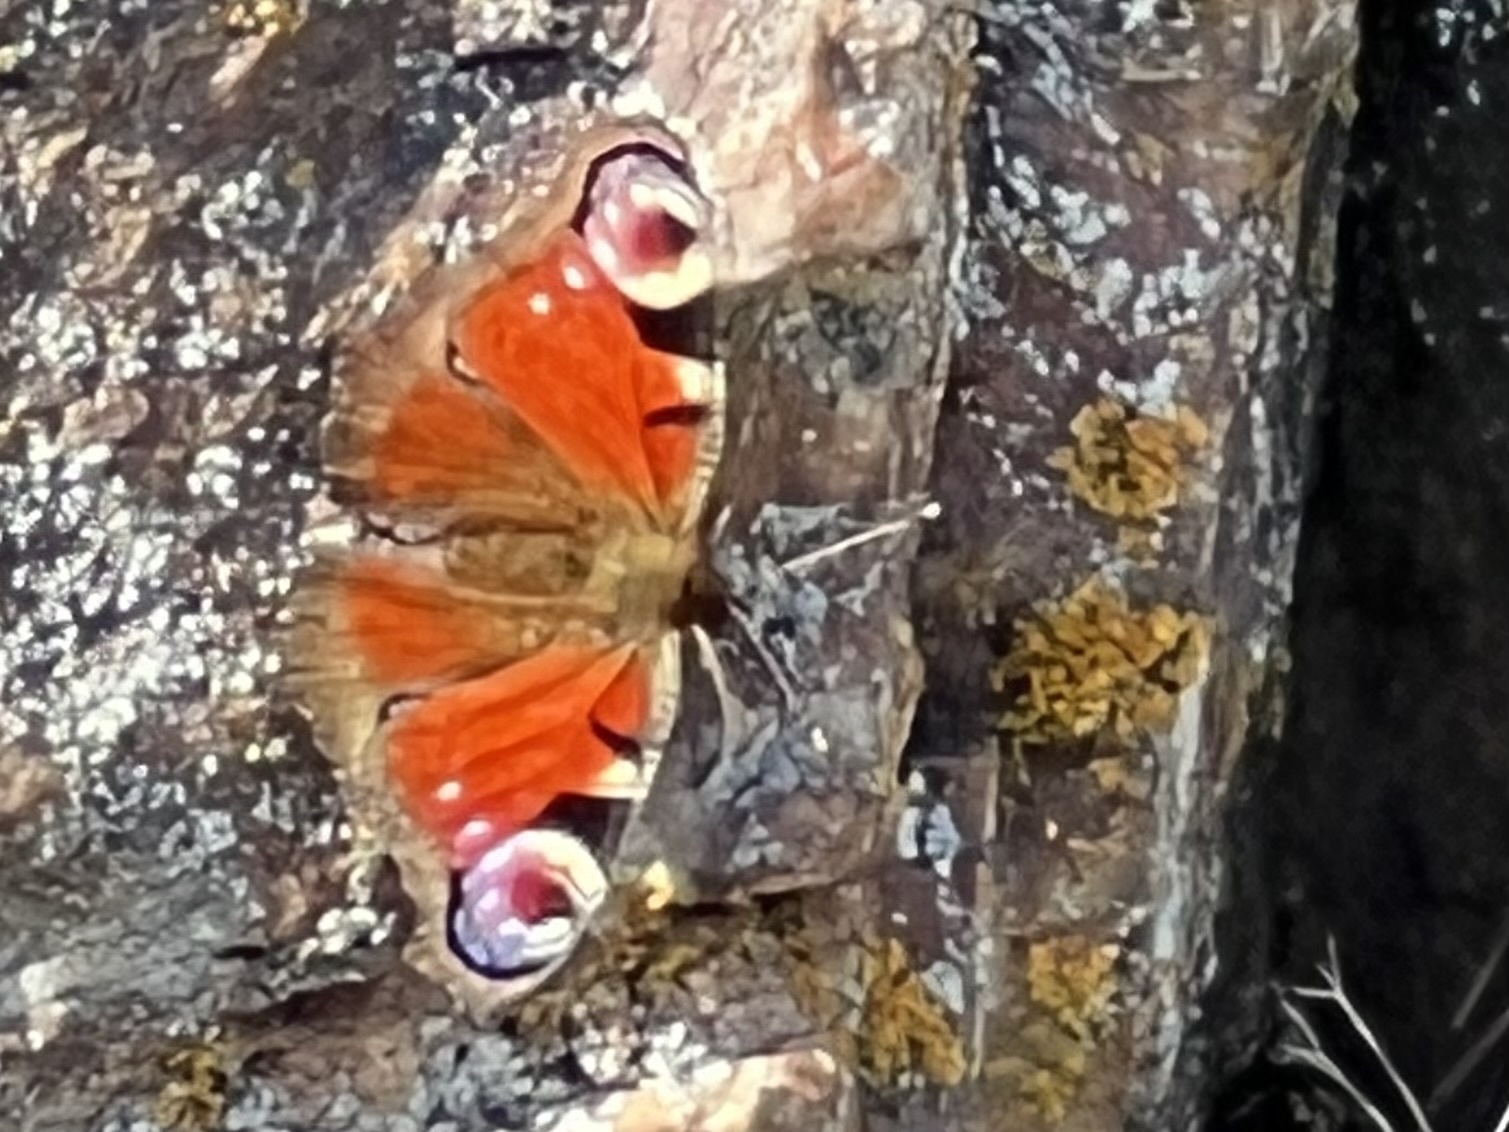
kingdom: Animalia
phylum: Arthropoda
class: Insecta
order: Lepidoptera
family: Nymphalidae
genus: Aglais
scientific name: Aglais io
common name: Peacock
